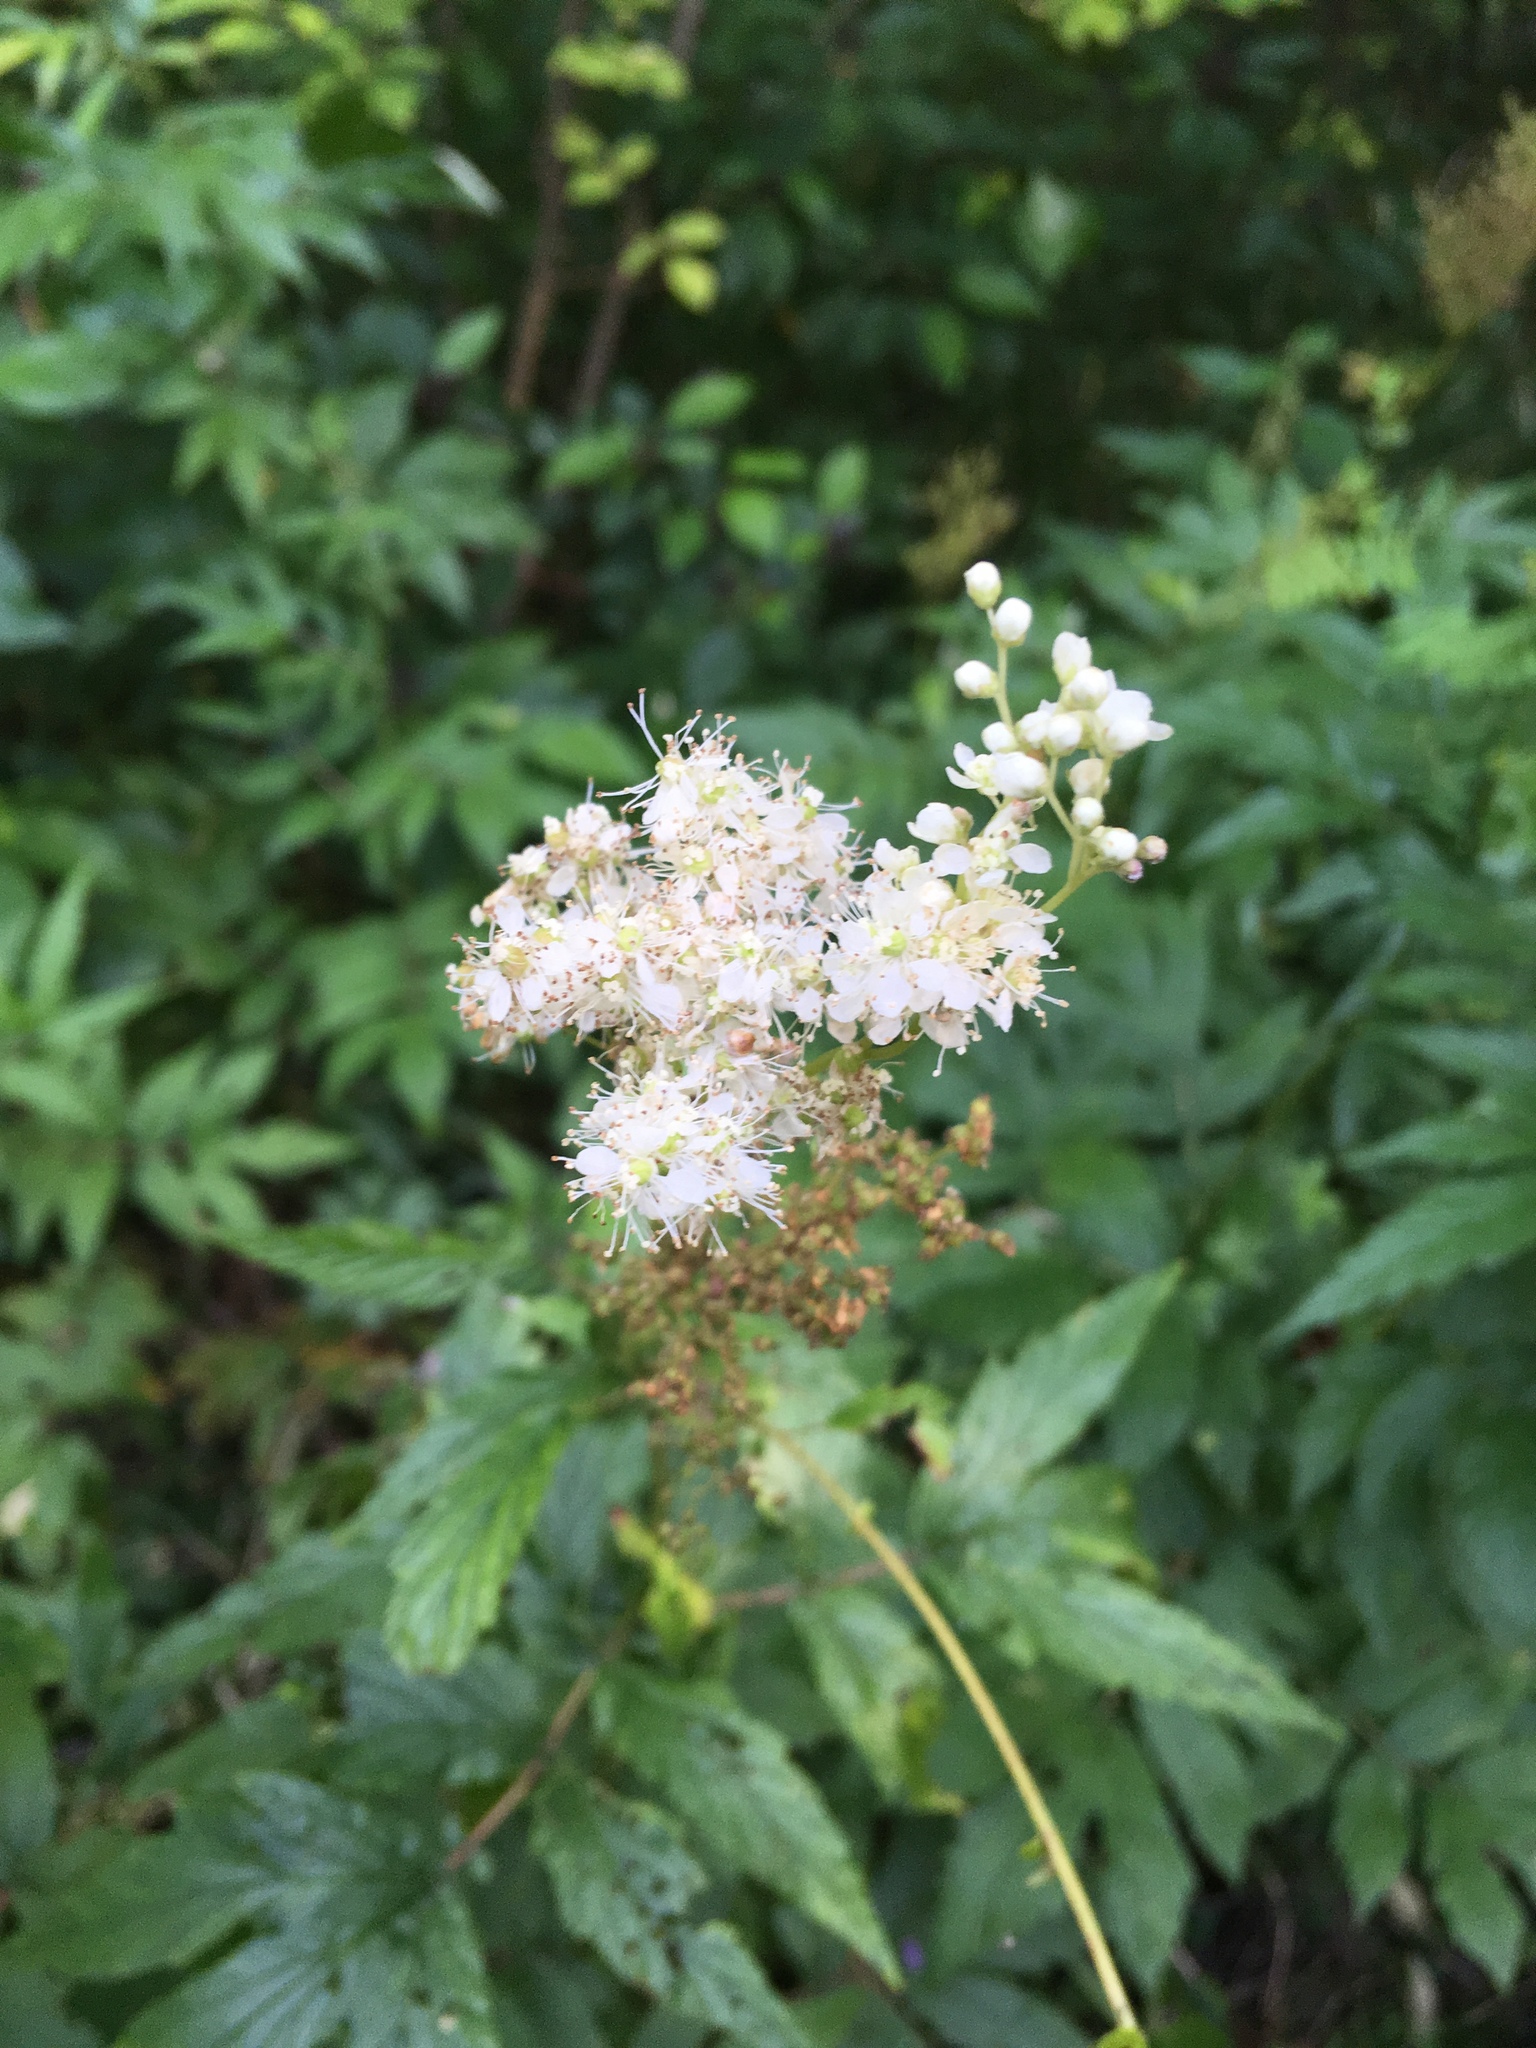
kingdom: Plantae
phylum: Tracheophyta
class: Magnoliopsida
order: Rosales
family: Rosaceae
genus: Filipendula
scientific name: Filipendula ulmaria
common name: Meadowsweet
